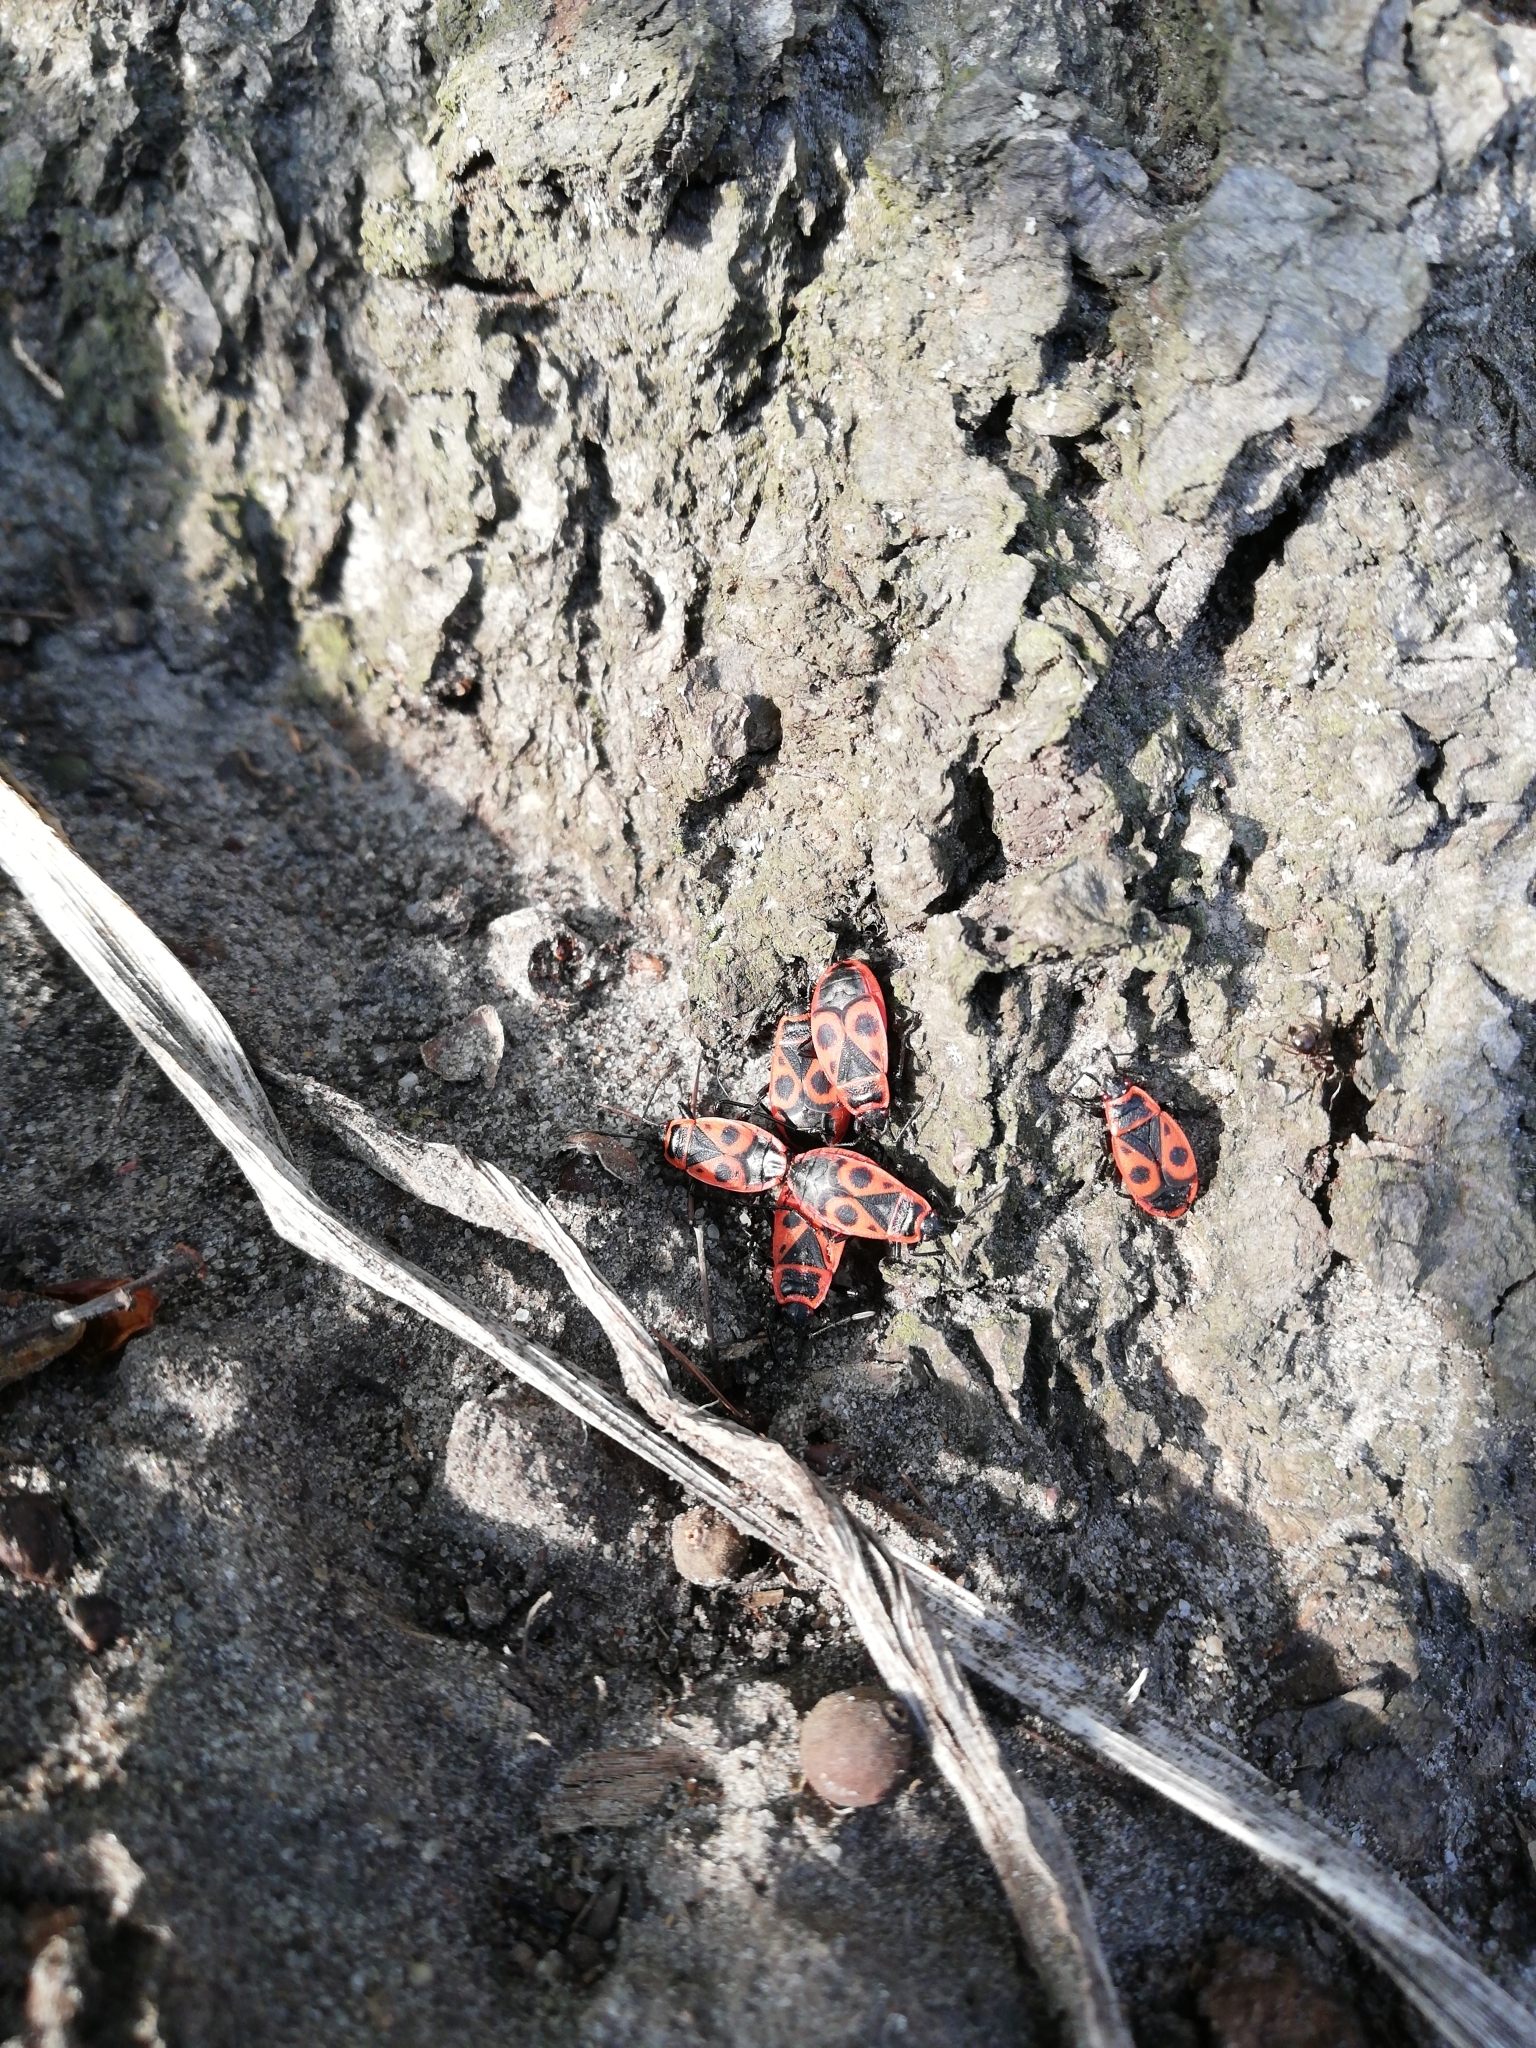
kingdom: Animalia
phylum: Arthropoda
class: Insecta
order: Hemiptera
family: Pyrrhocoridae
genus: Pyrrhocoris
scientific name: Pyrrhocoris apterus
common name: Firebug
